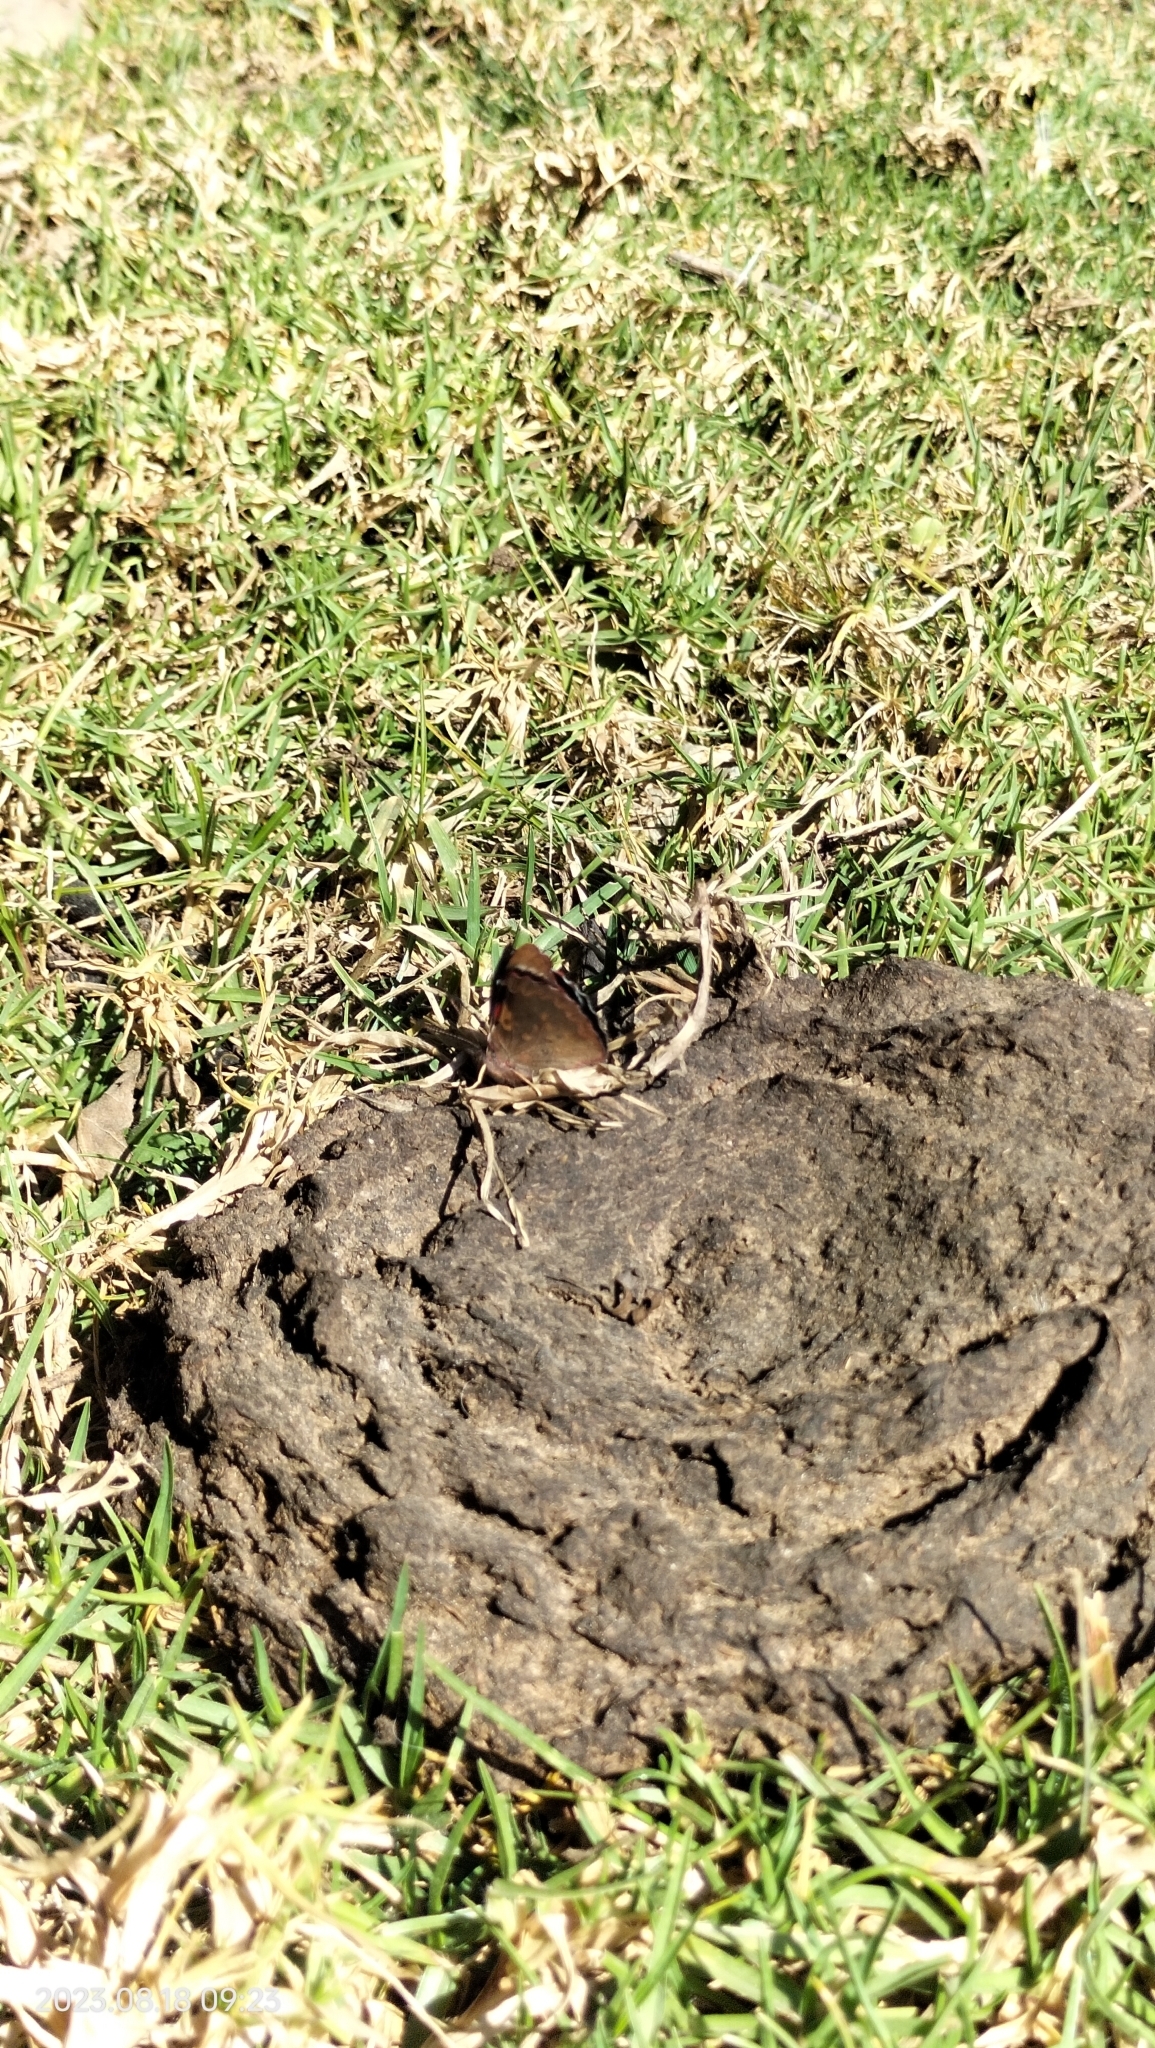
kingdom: Animalia
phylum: Arthropoda
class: Insecta
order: Lepidoptera
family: Nymphalidae
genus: Perisama
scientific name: Perisama diotima
